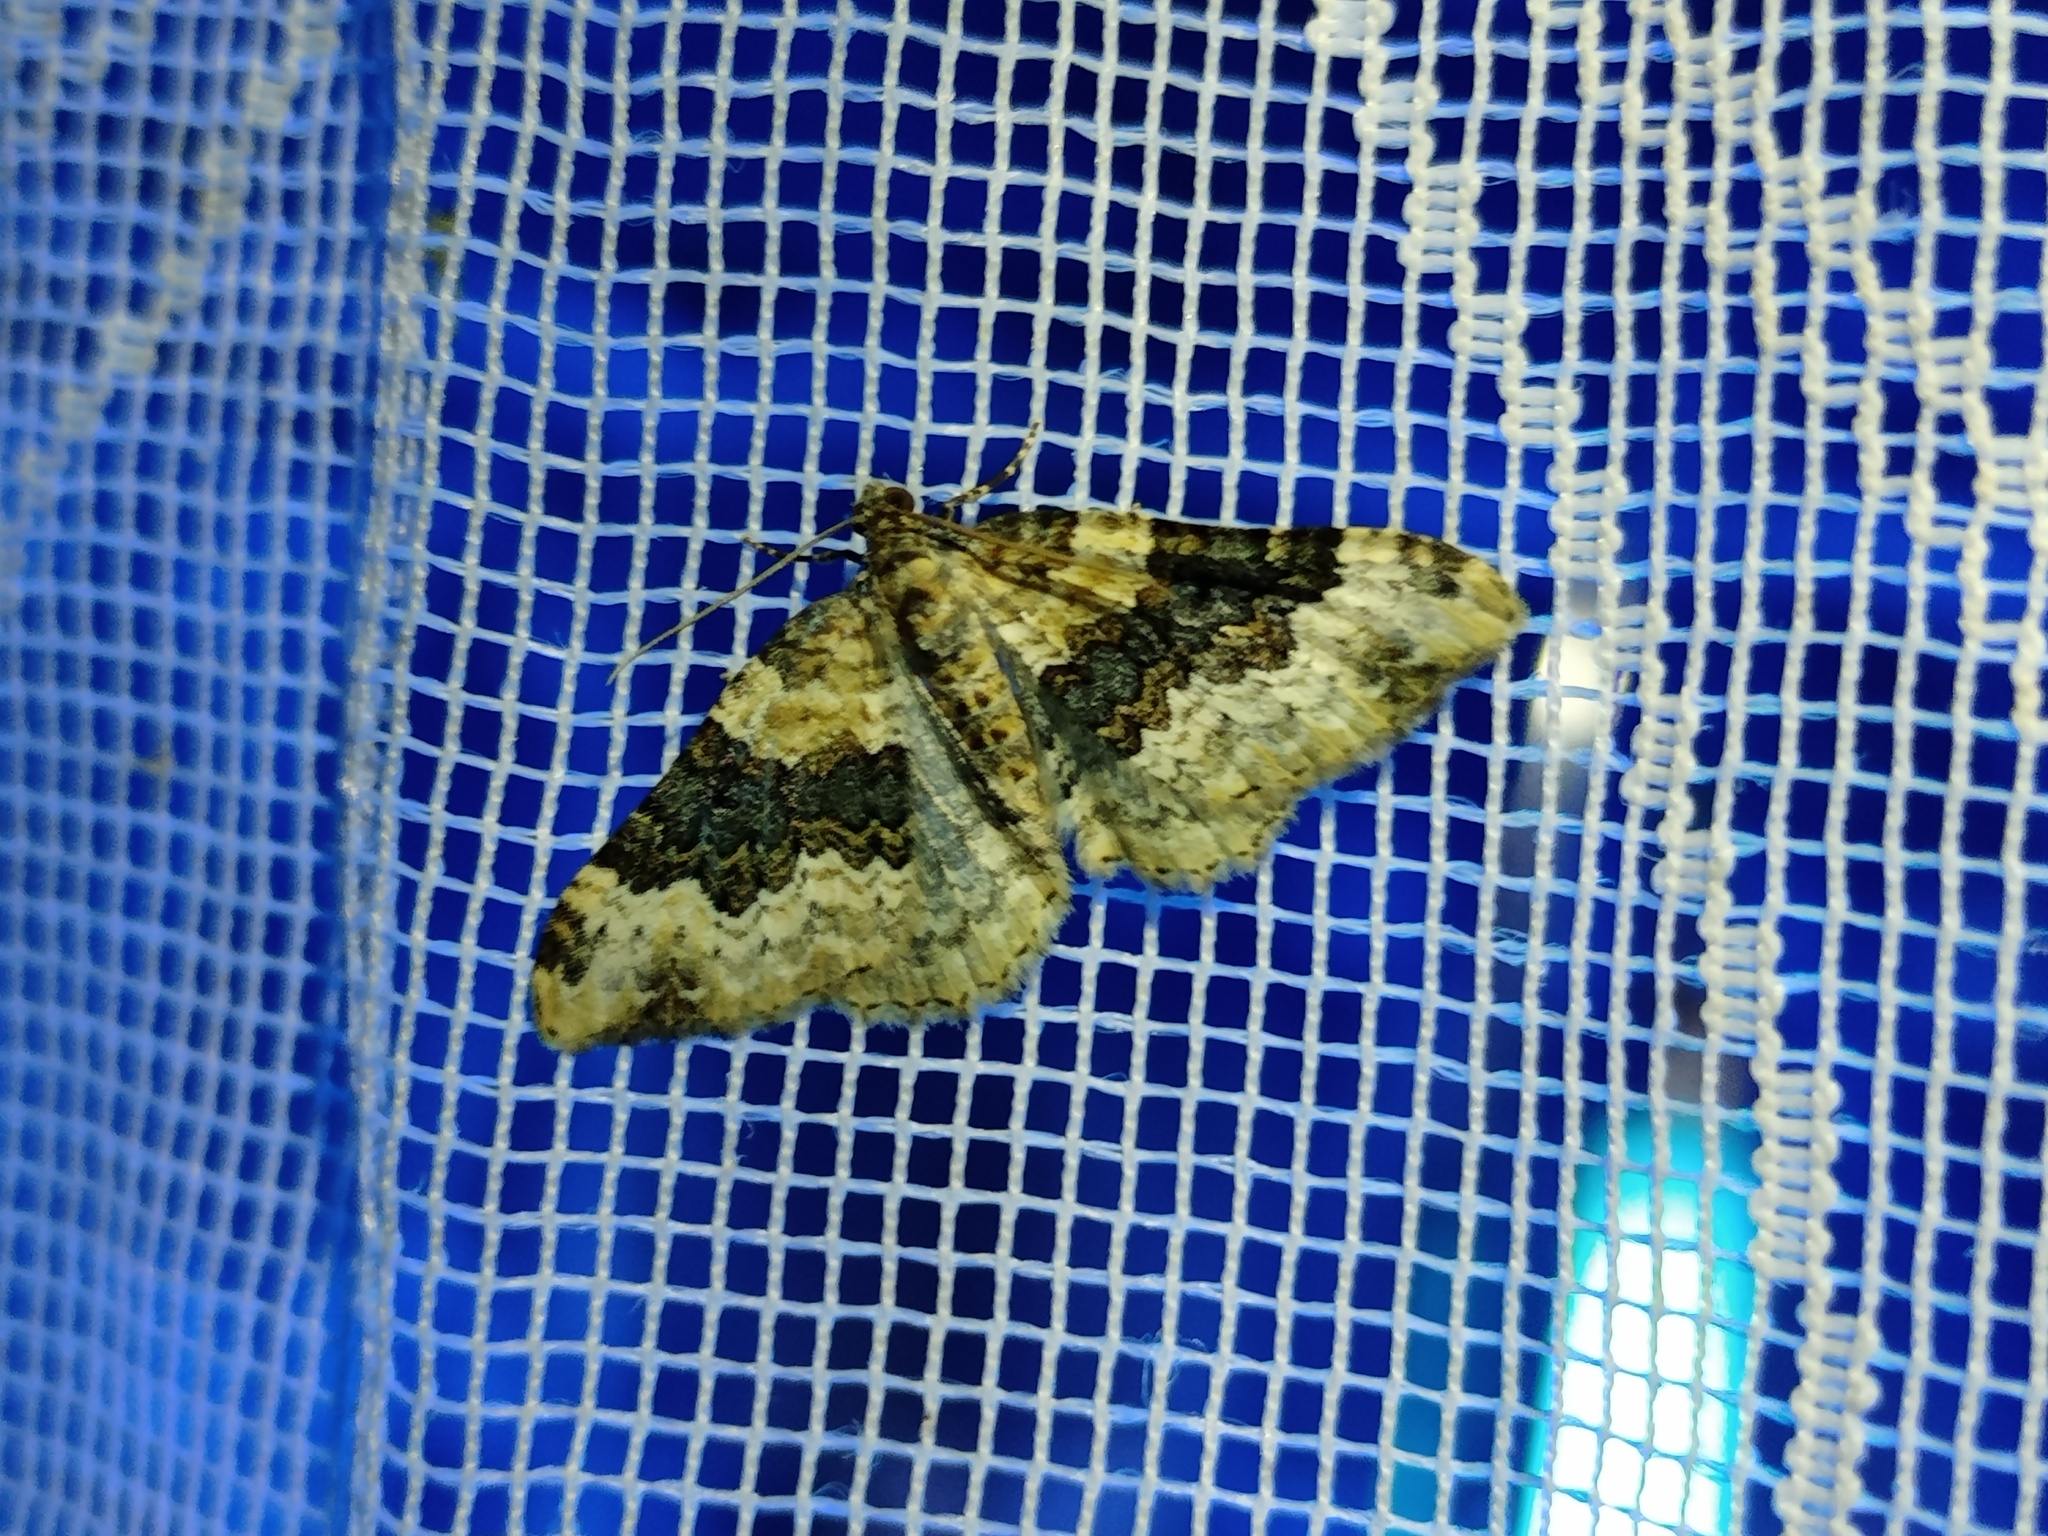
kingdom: Animalia
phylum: Arthropoda
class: Insecta
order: Lepidoptera
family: Geometridae
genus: Epirrhoe
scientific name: Epirrhoe galiata
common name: Galium carpet
